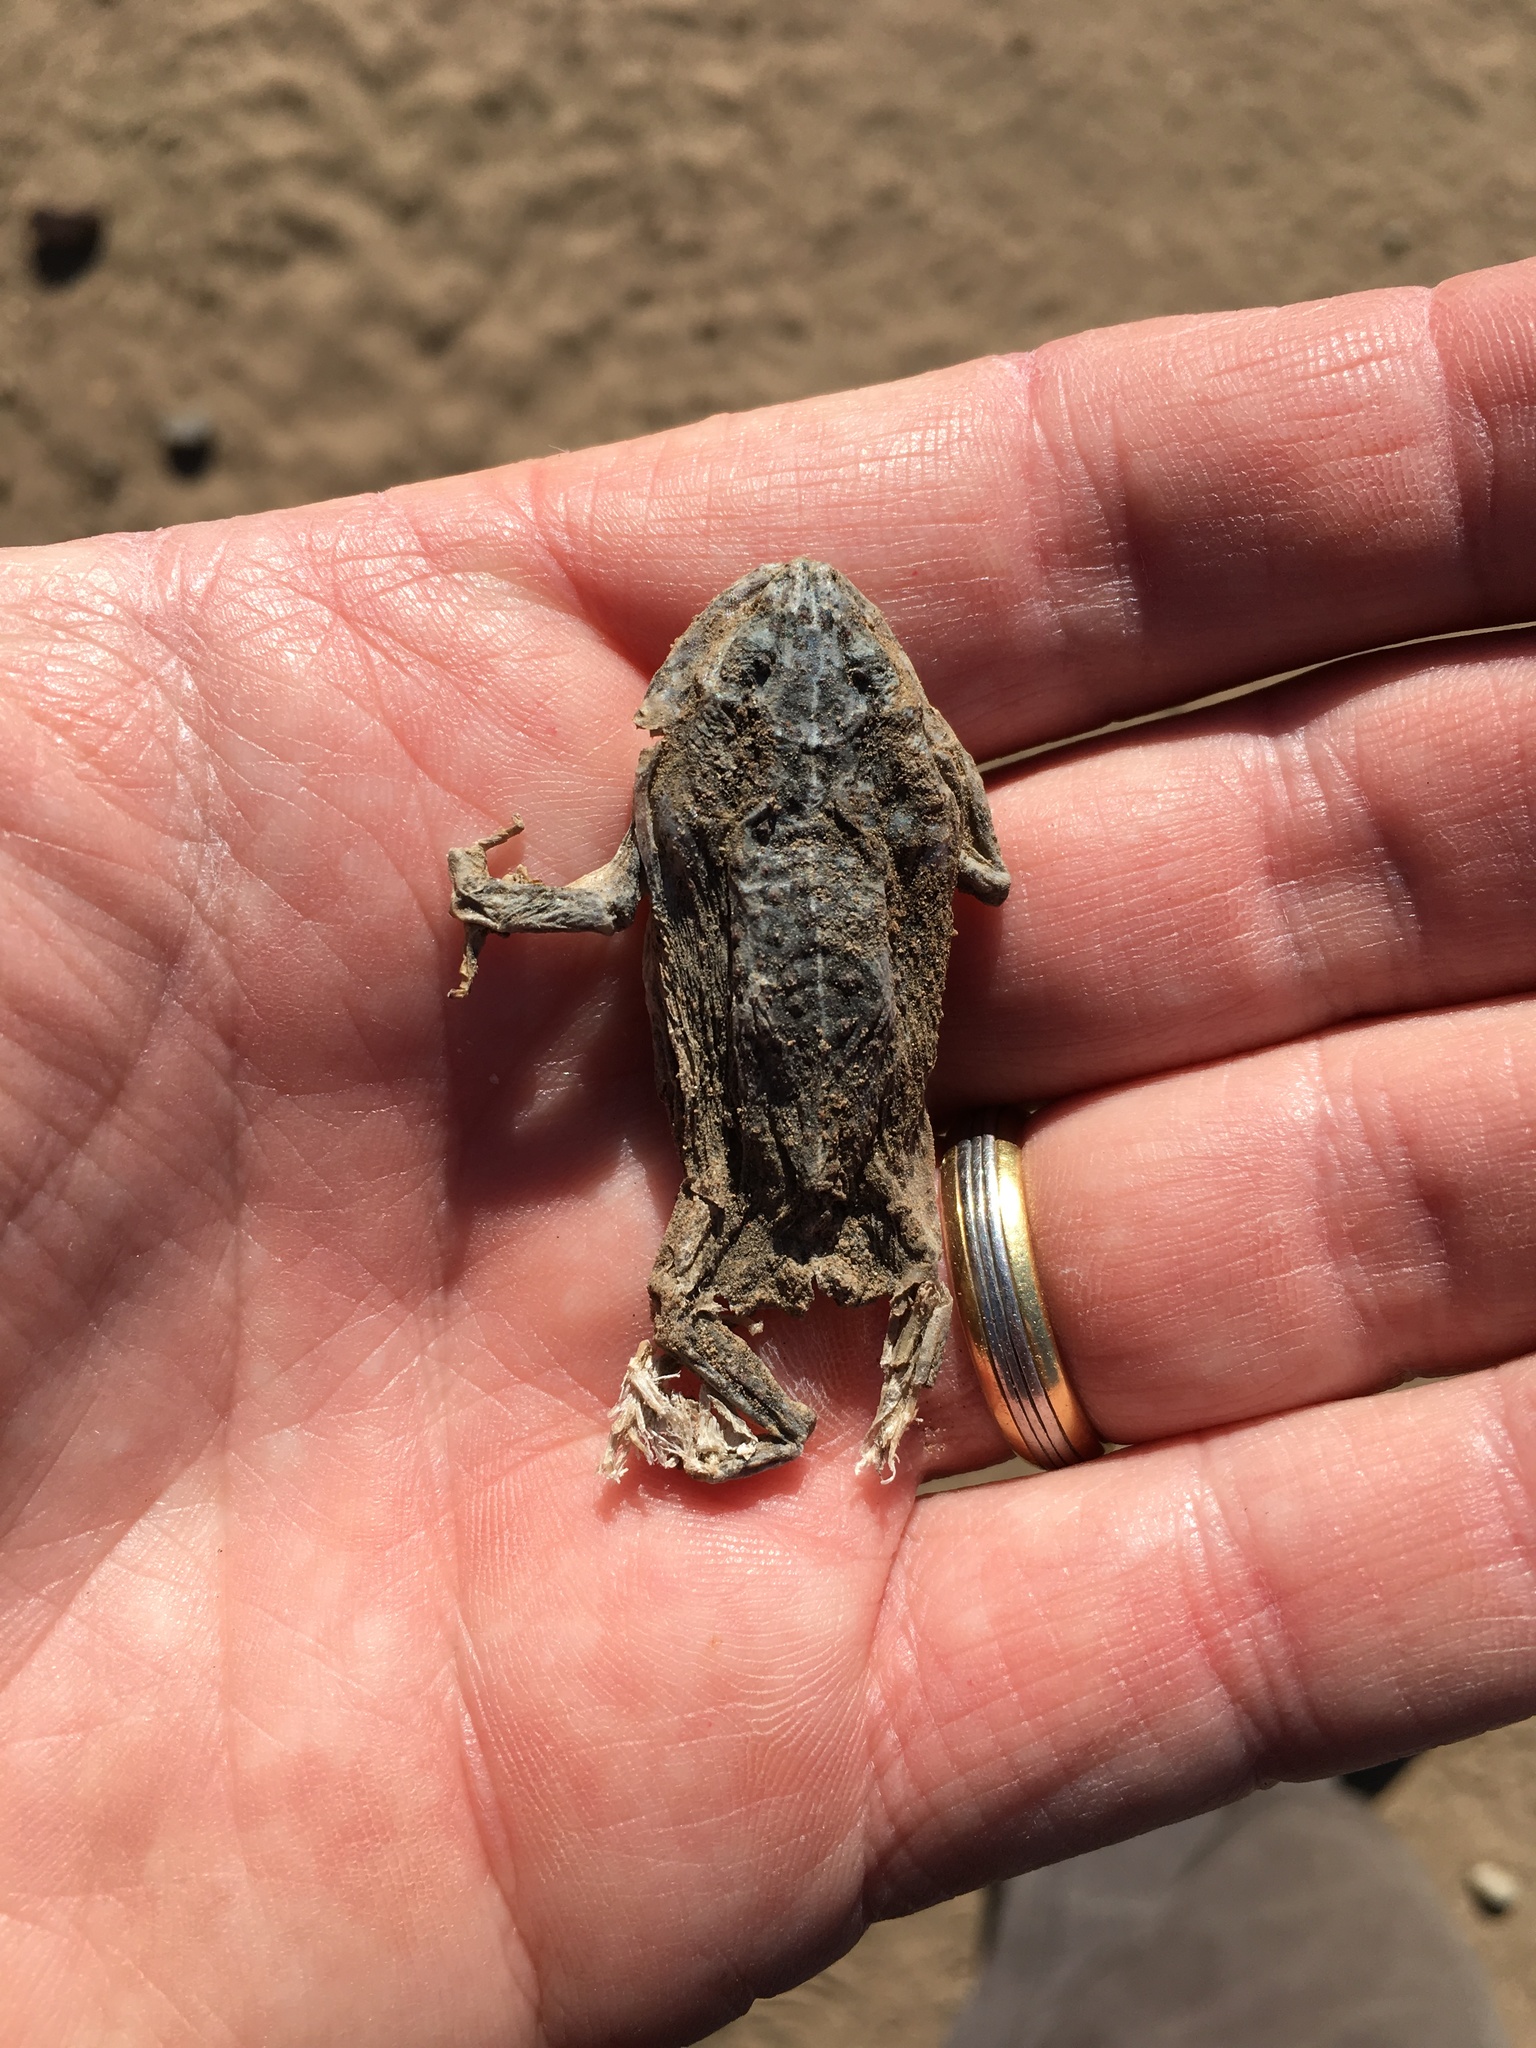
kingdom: Animalia
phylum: Chordata
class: Amphibia
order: Anura
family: Bufonidae
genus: Anaxyrus
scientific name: Anaxyrus boreas
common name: Western toad
